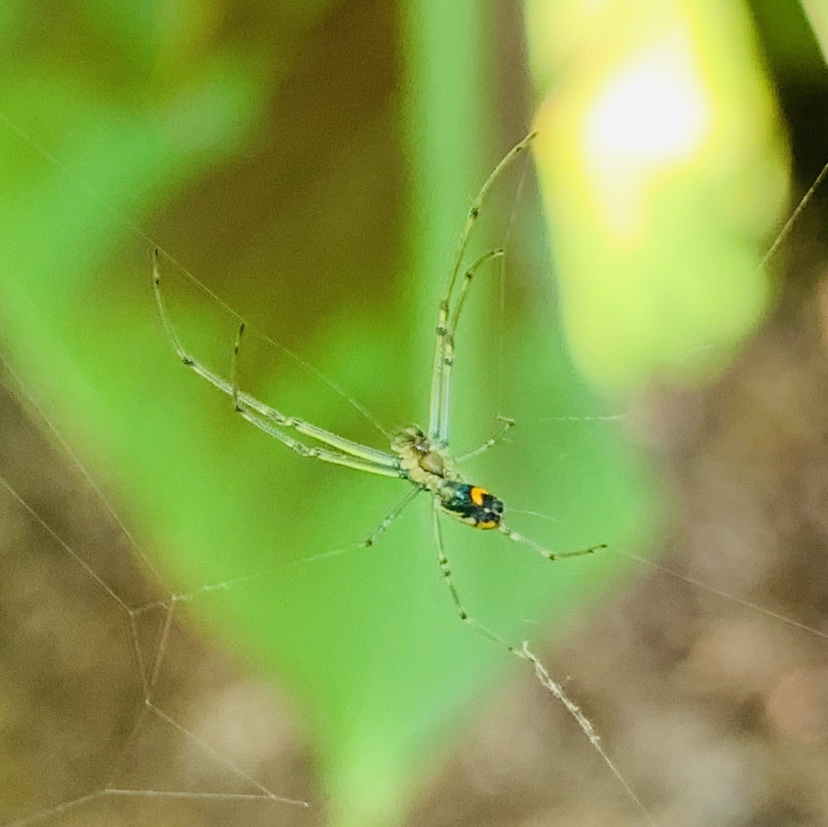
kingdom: Animalia
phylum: Arthropoda
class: Arachnida
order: Araneae
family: Tetragnathidae
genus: Leucauge
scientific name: Leucauge venusta
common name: Longjawed orb weavers
